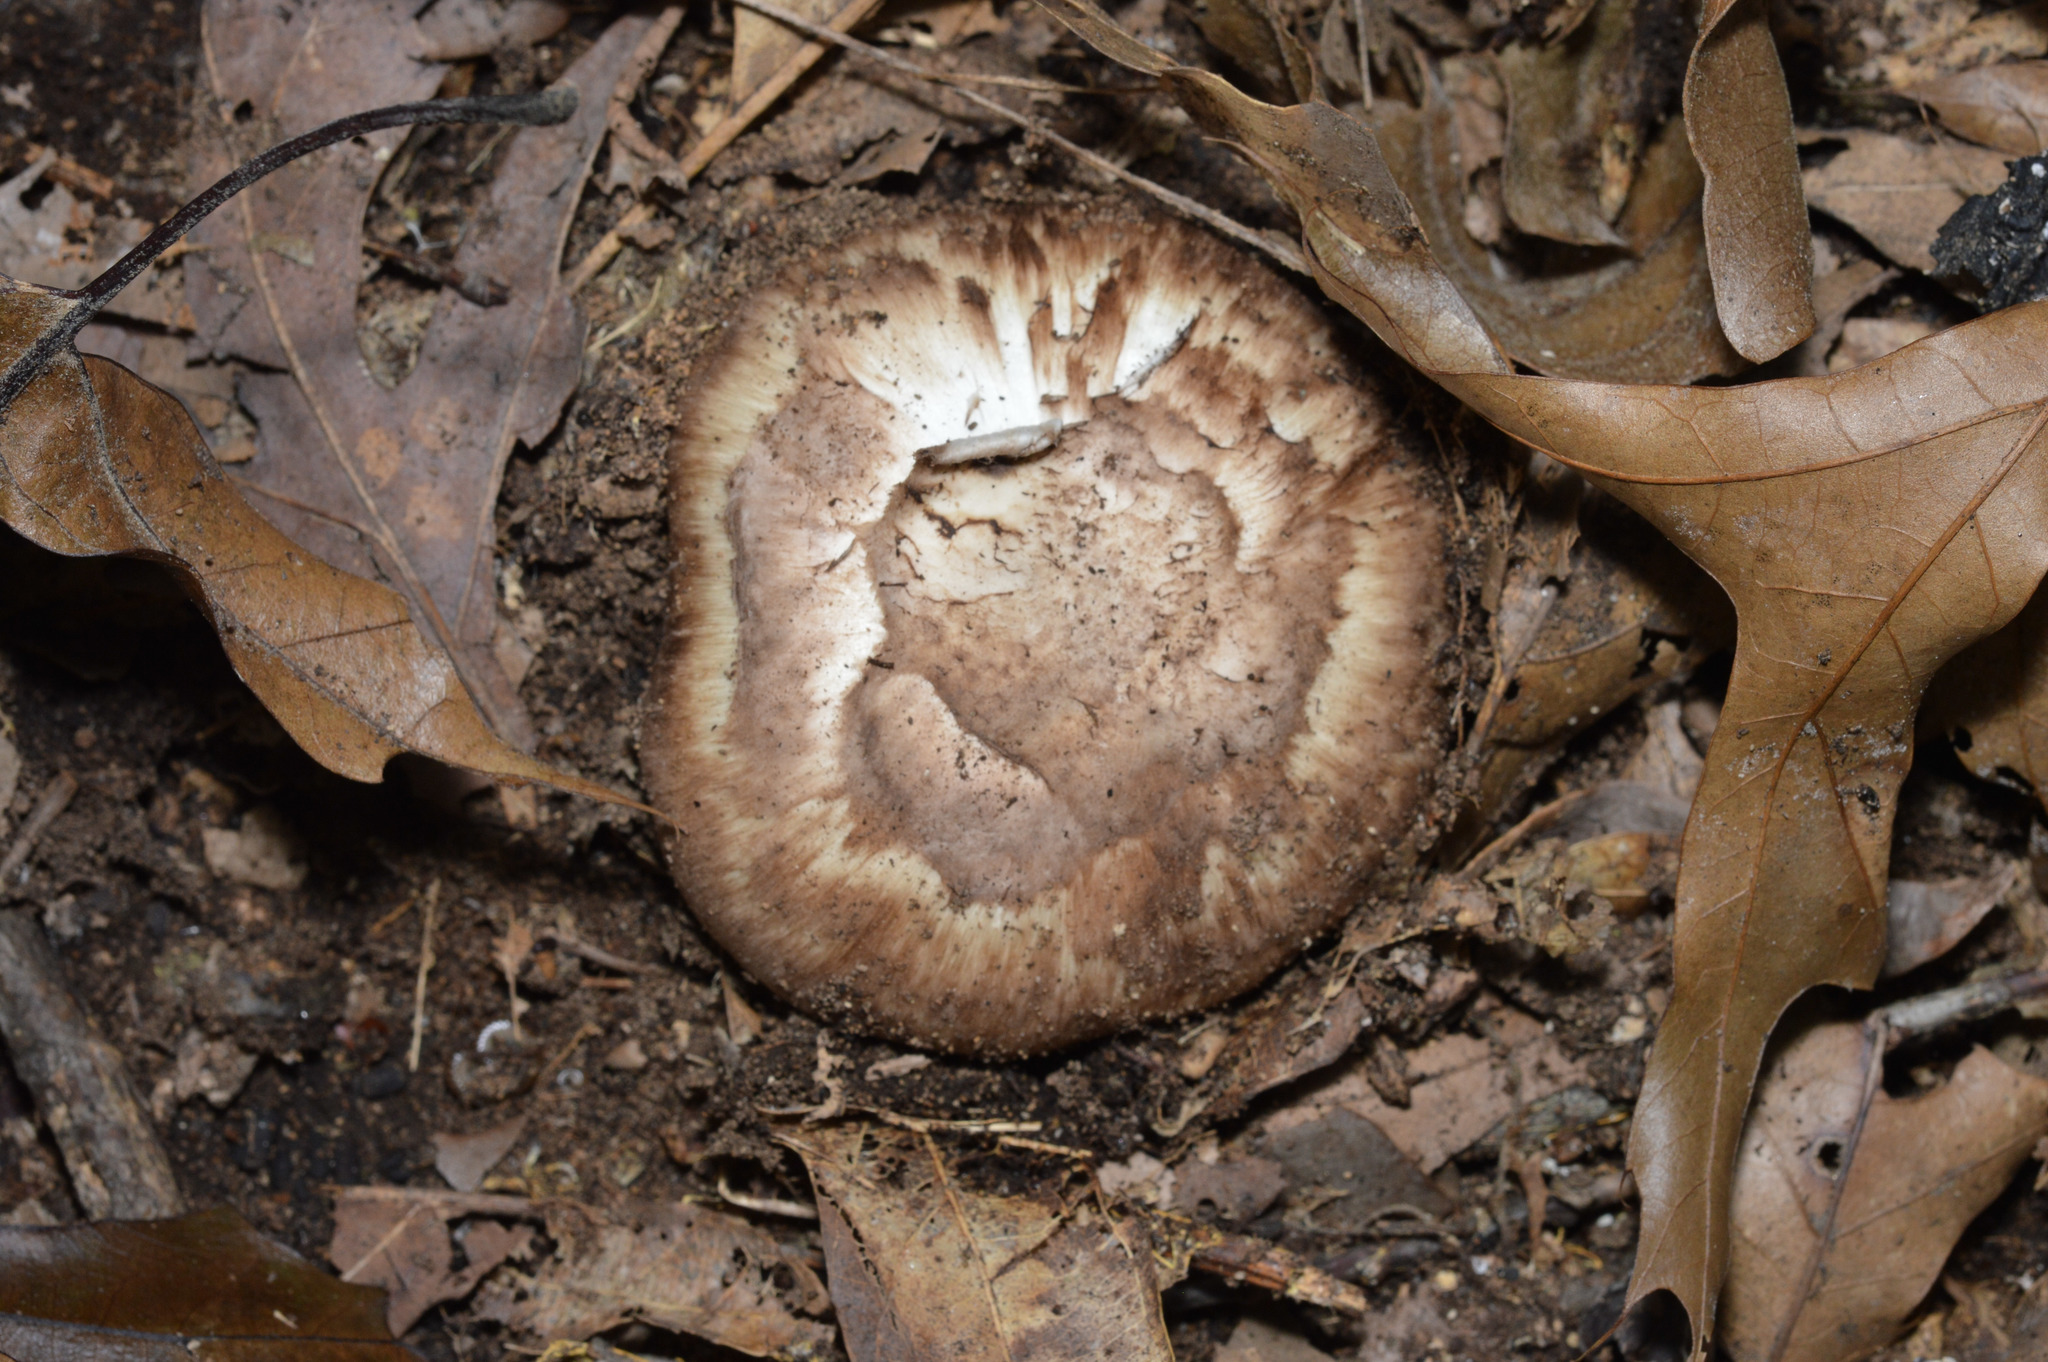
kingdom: Fungi
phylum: Basidiomycota
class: Agaricomycetes
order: Agaricales
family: Tricholomataceae
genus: Tricholoma
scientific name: Tricholoma caligatum
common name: True booted knight
